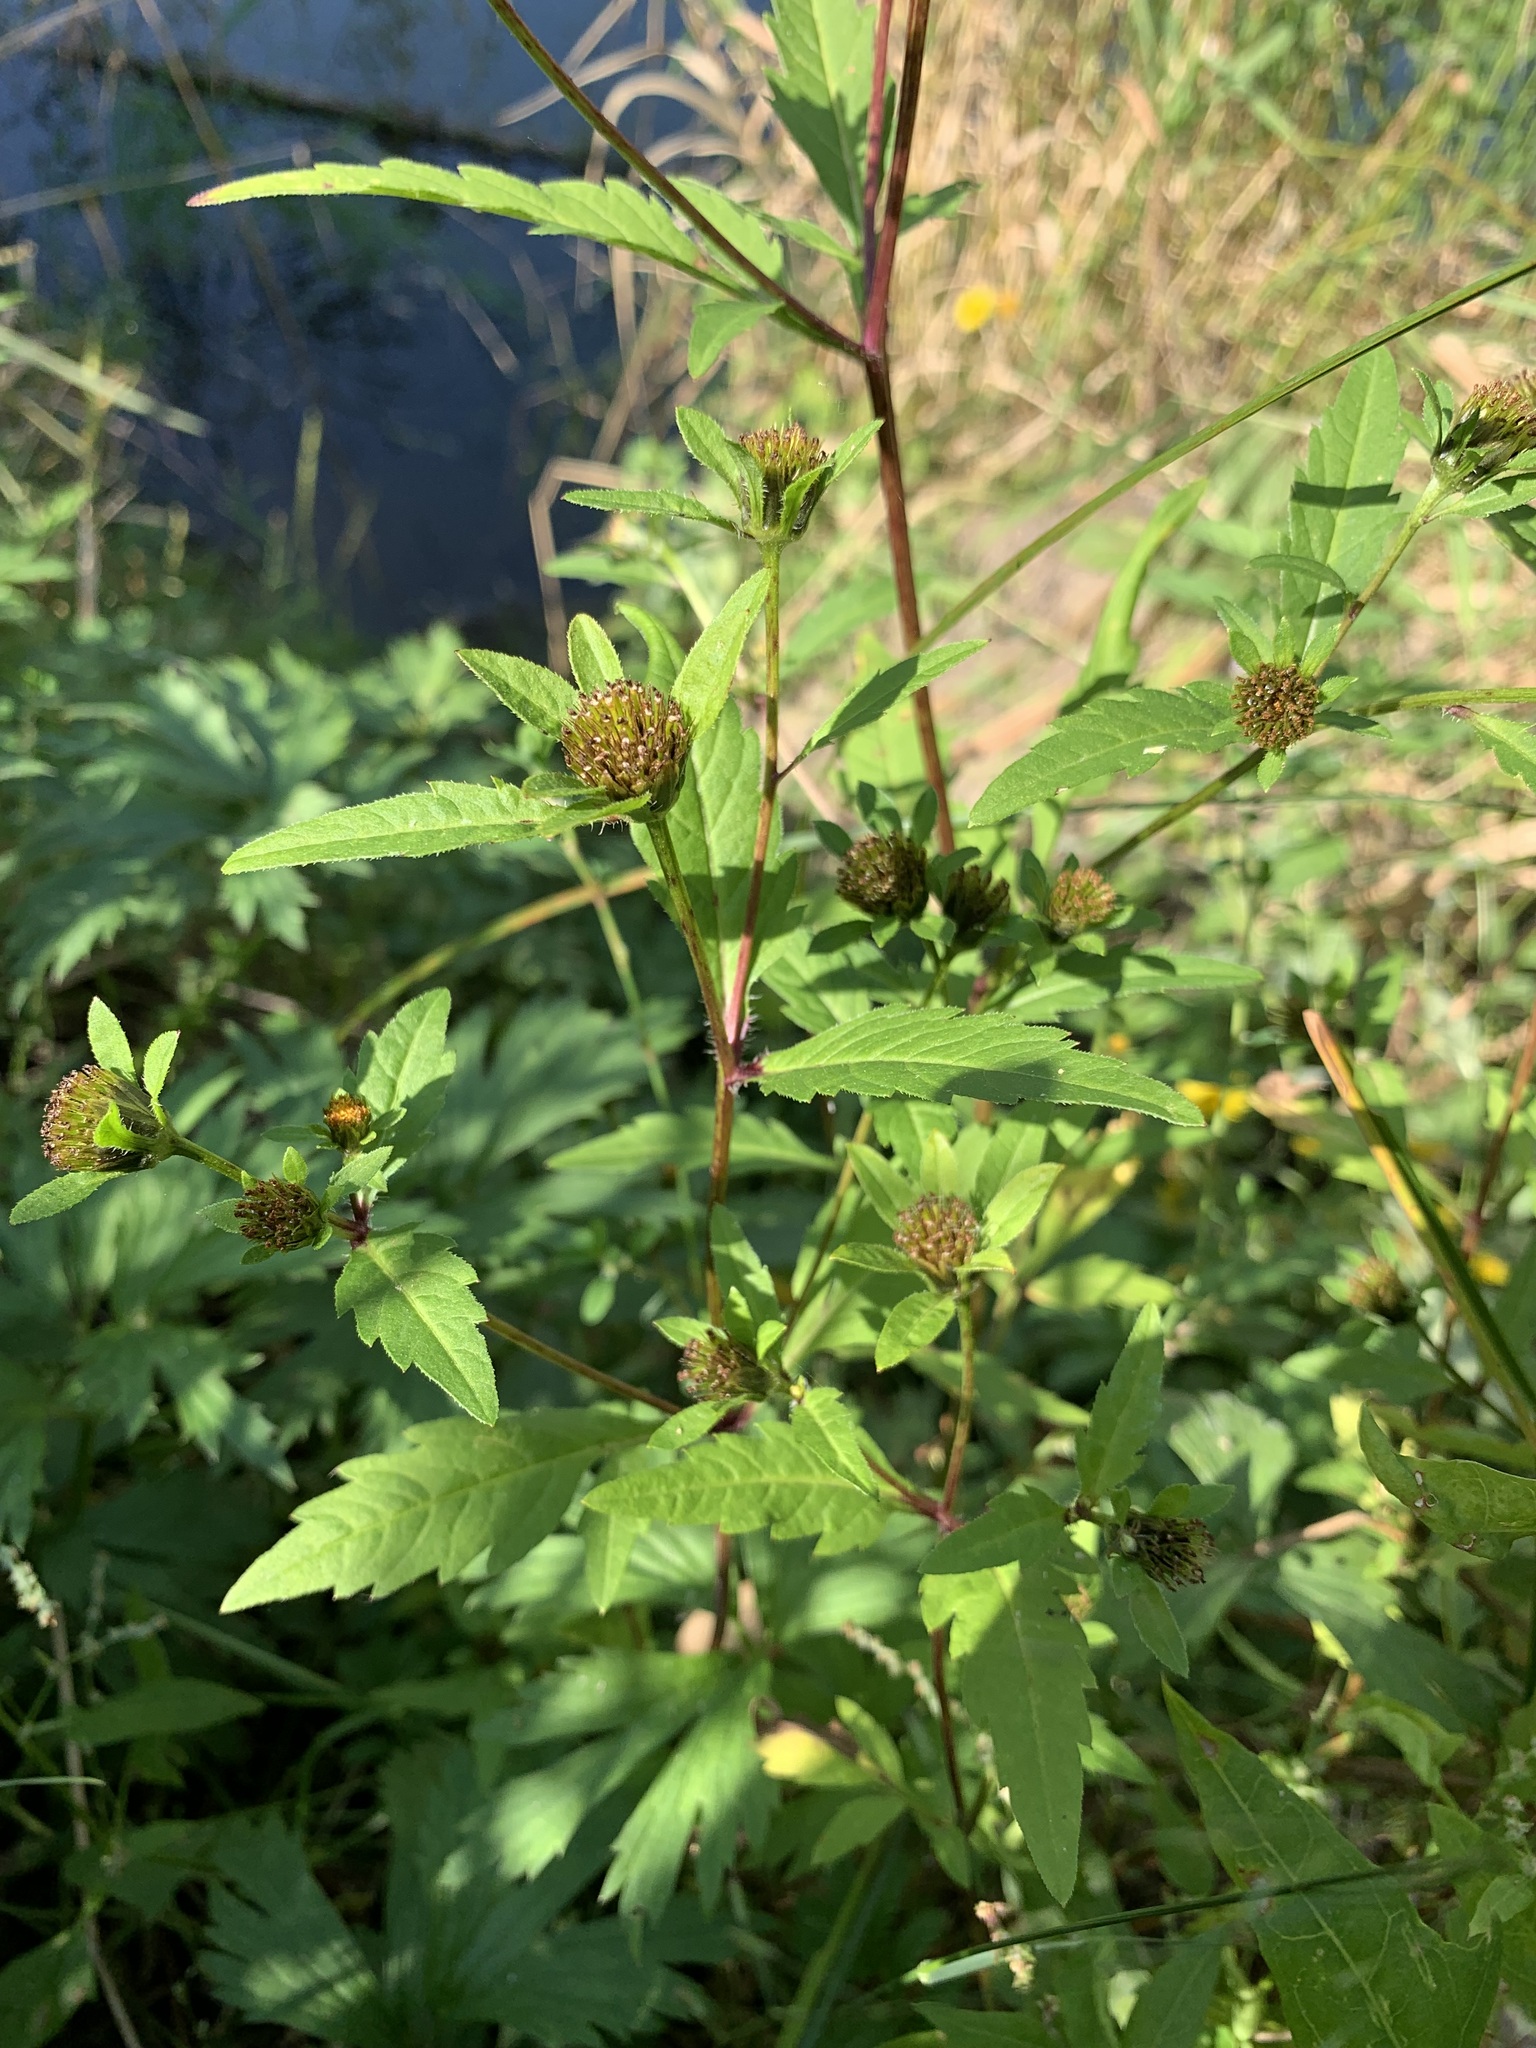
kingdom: Plantae
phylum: Tracheophyta
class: Magnoliopsida
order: Asterales
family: Asteraceae
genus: Bidens
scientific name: Bidens tripartita
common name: Trifid bur-marigold
